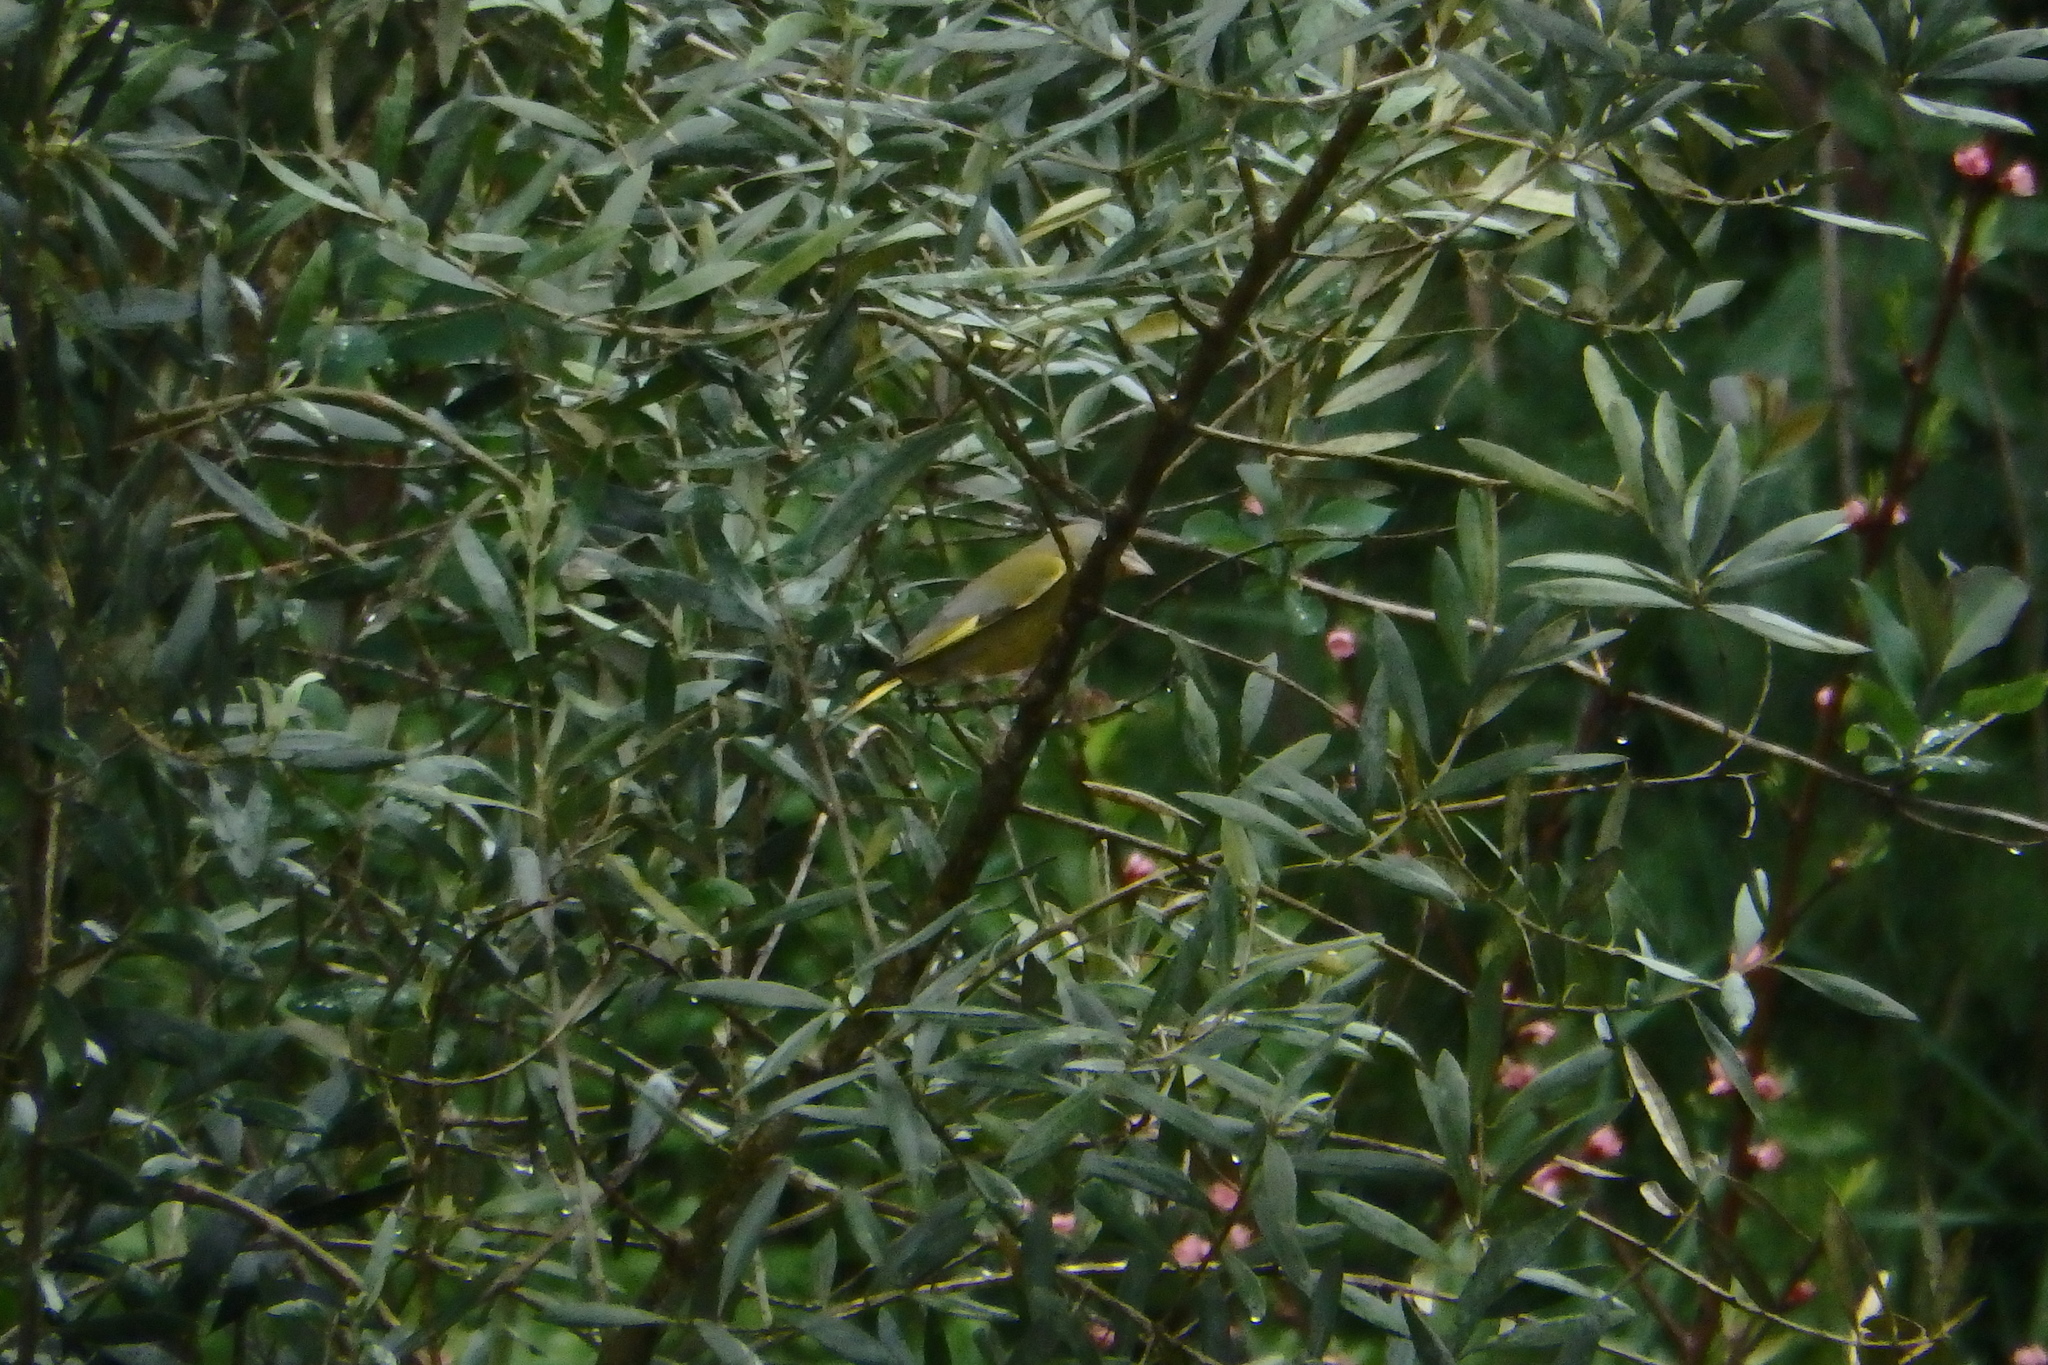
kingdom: Plantae
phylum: Tracheophyta
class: Liliopsida
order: Poales
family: Poaceae
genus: Chloris
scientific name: Chloris chloris
